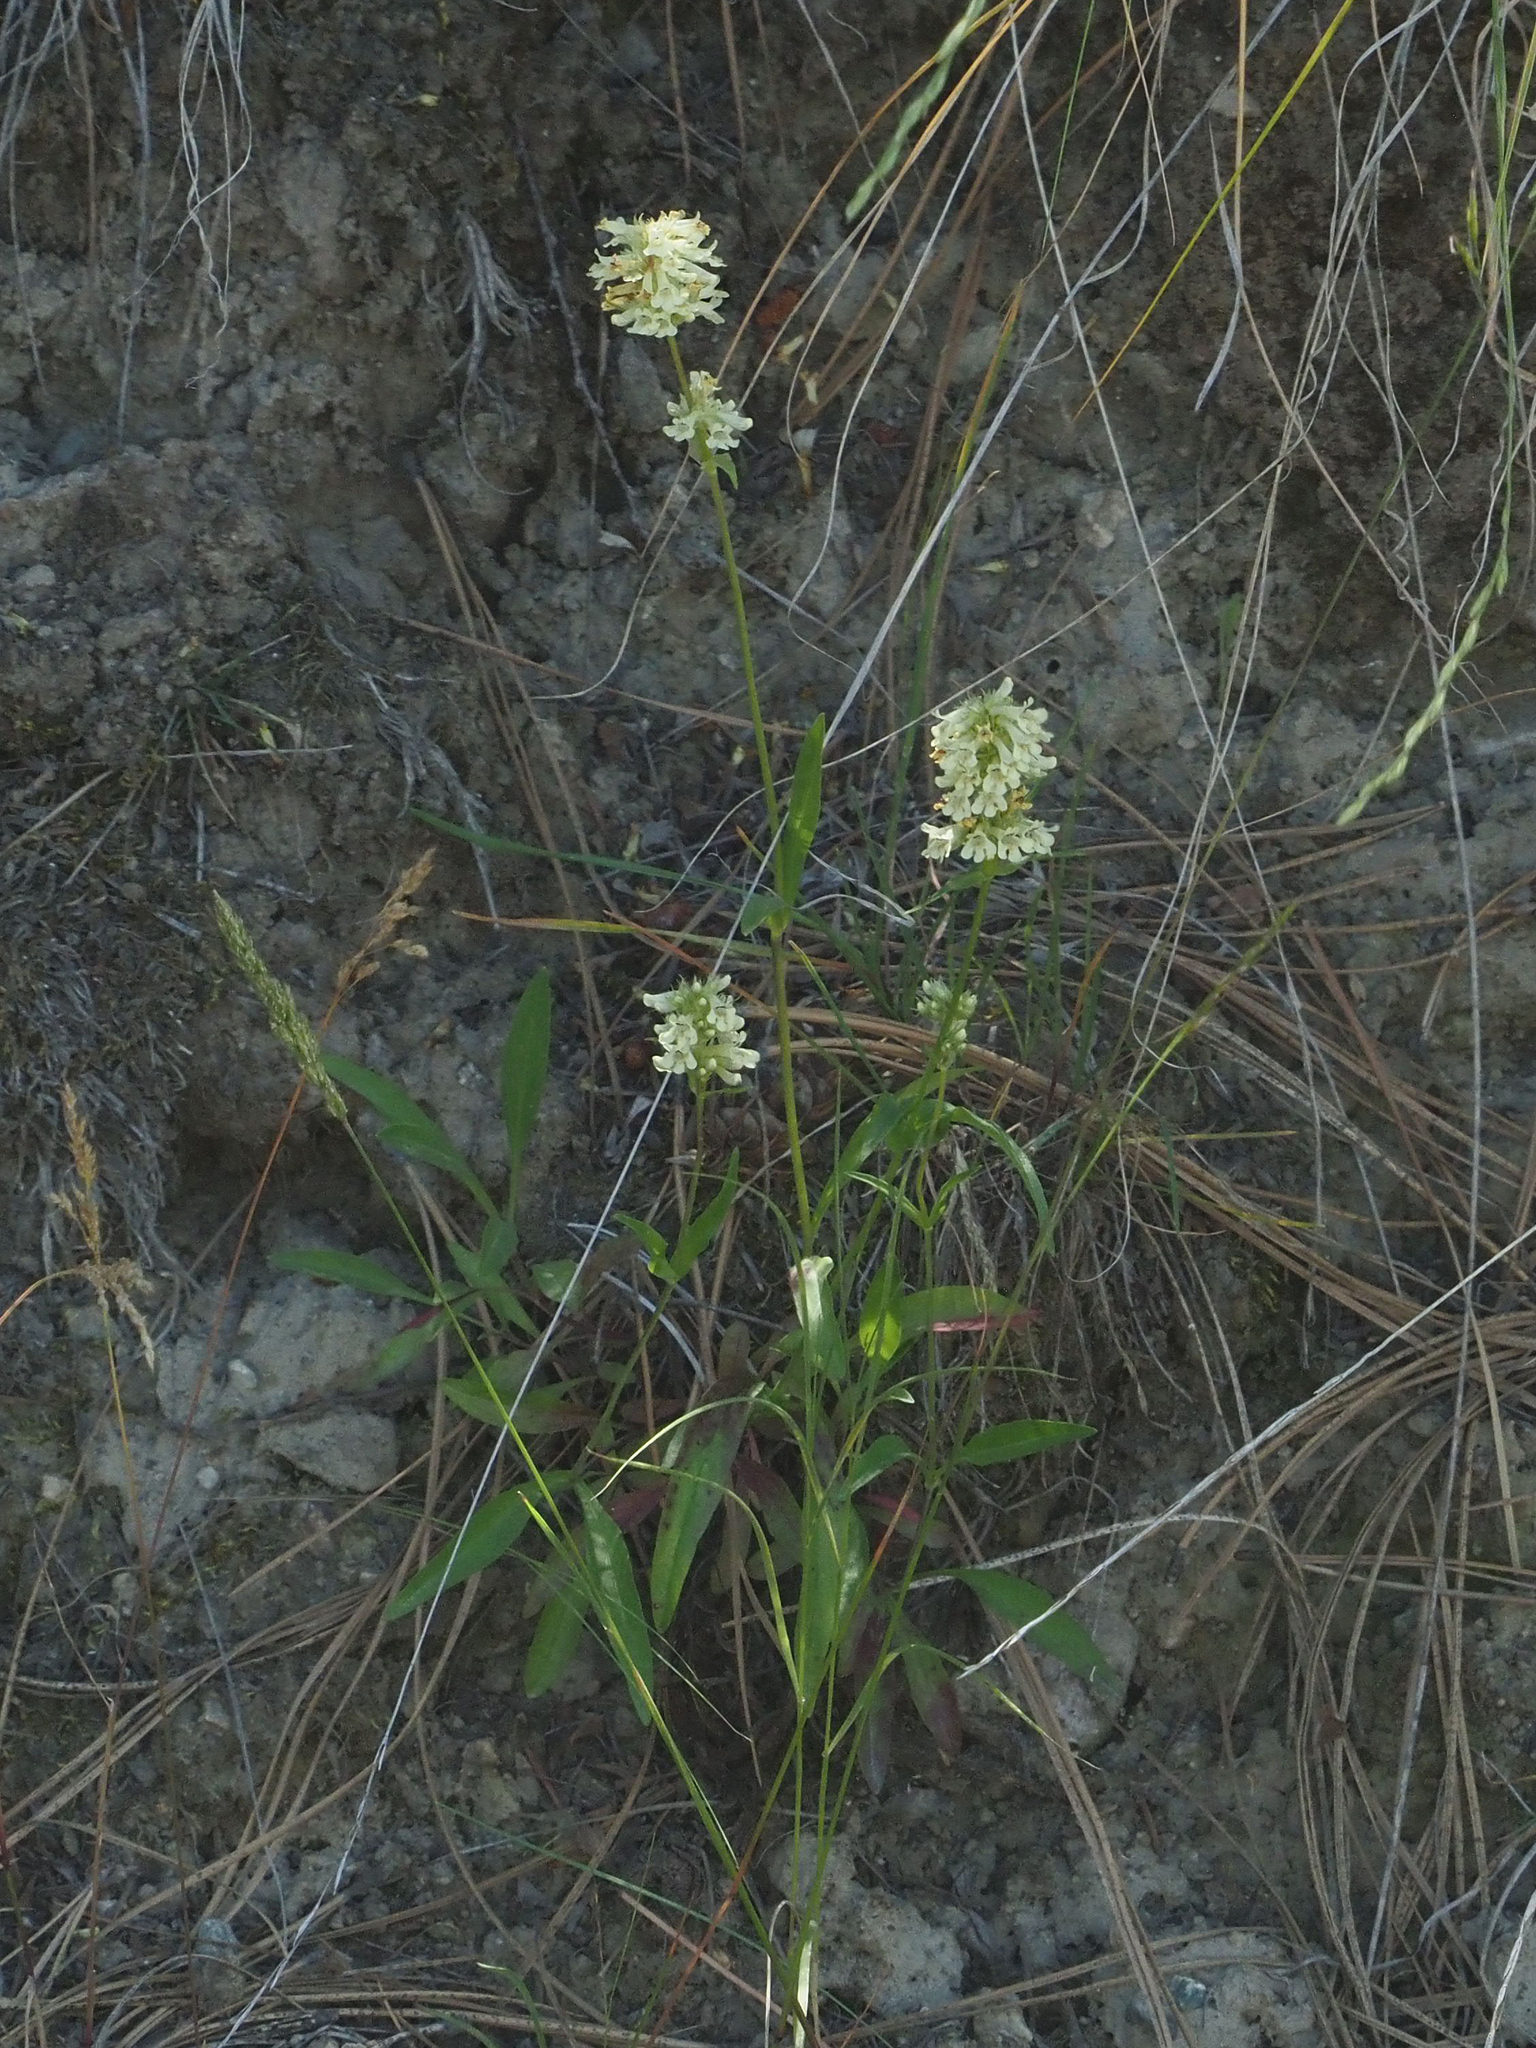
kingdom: Plantae
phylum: Tracheophyta
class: Magnoliopsida
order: Lamiales
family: Plantaginaceae
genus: Penstemon
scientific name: Penstemon confertus
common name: Lesser yellow beardtongue
